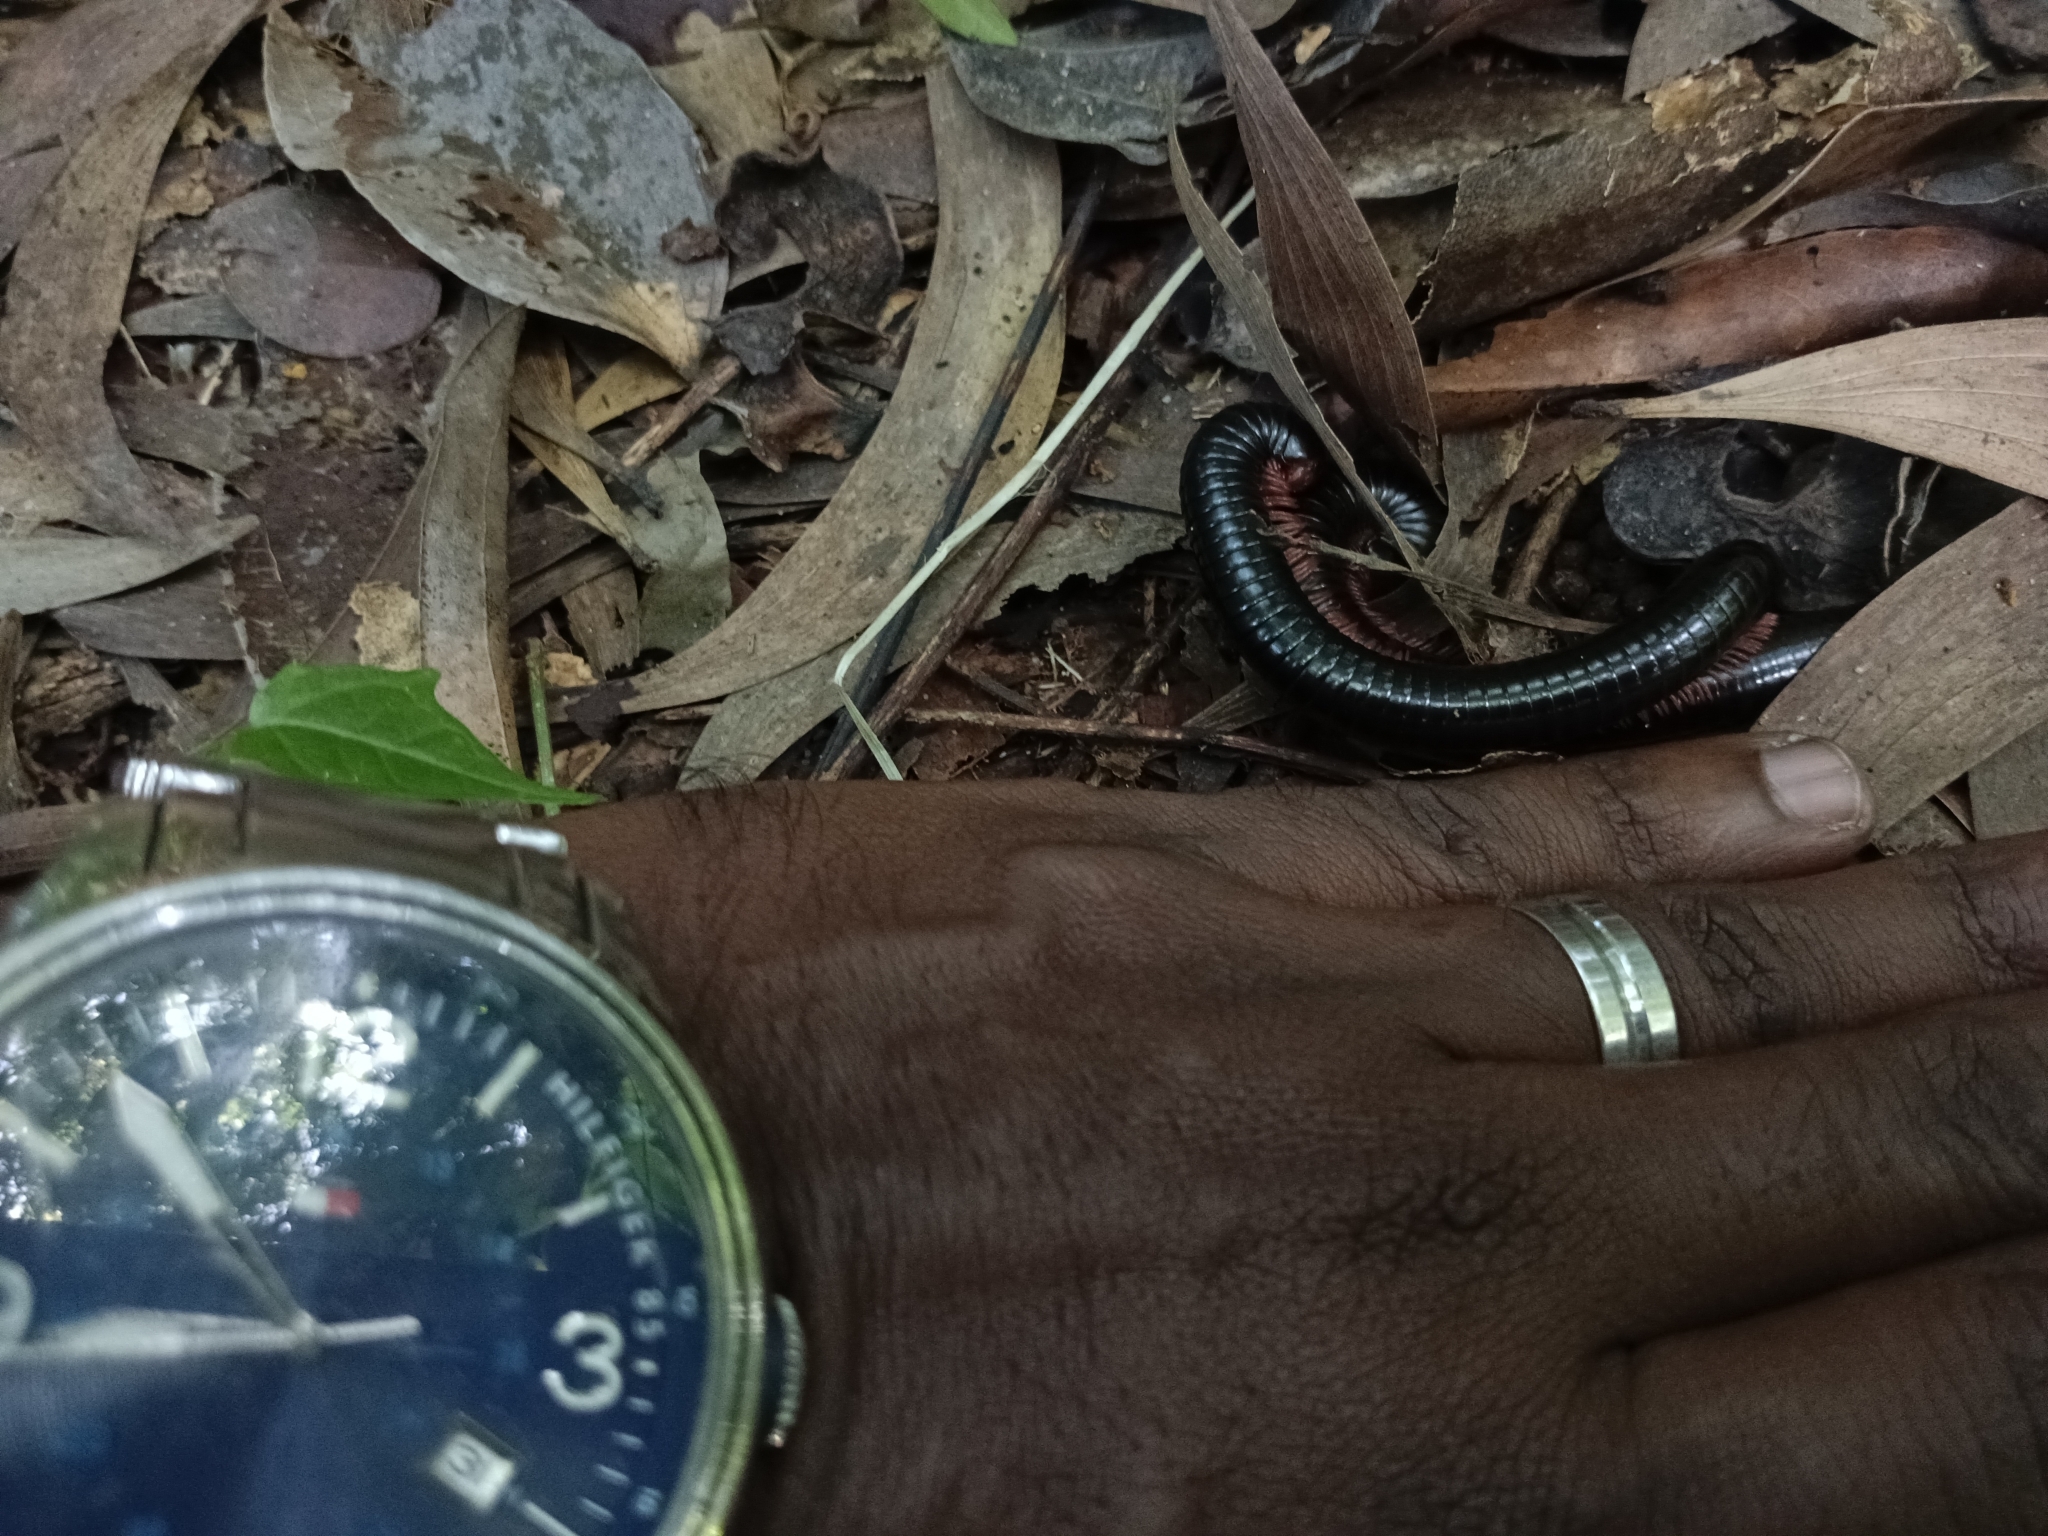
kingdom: Animalia
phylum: Arthropoda
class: Diplopoda
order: Spirostreptida
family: Harpagophoridae
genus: Phyllogonostreptus
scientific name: Phyllogonostreptus nigrolabiatus
